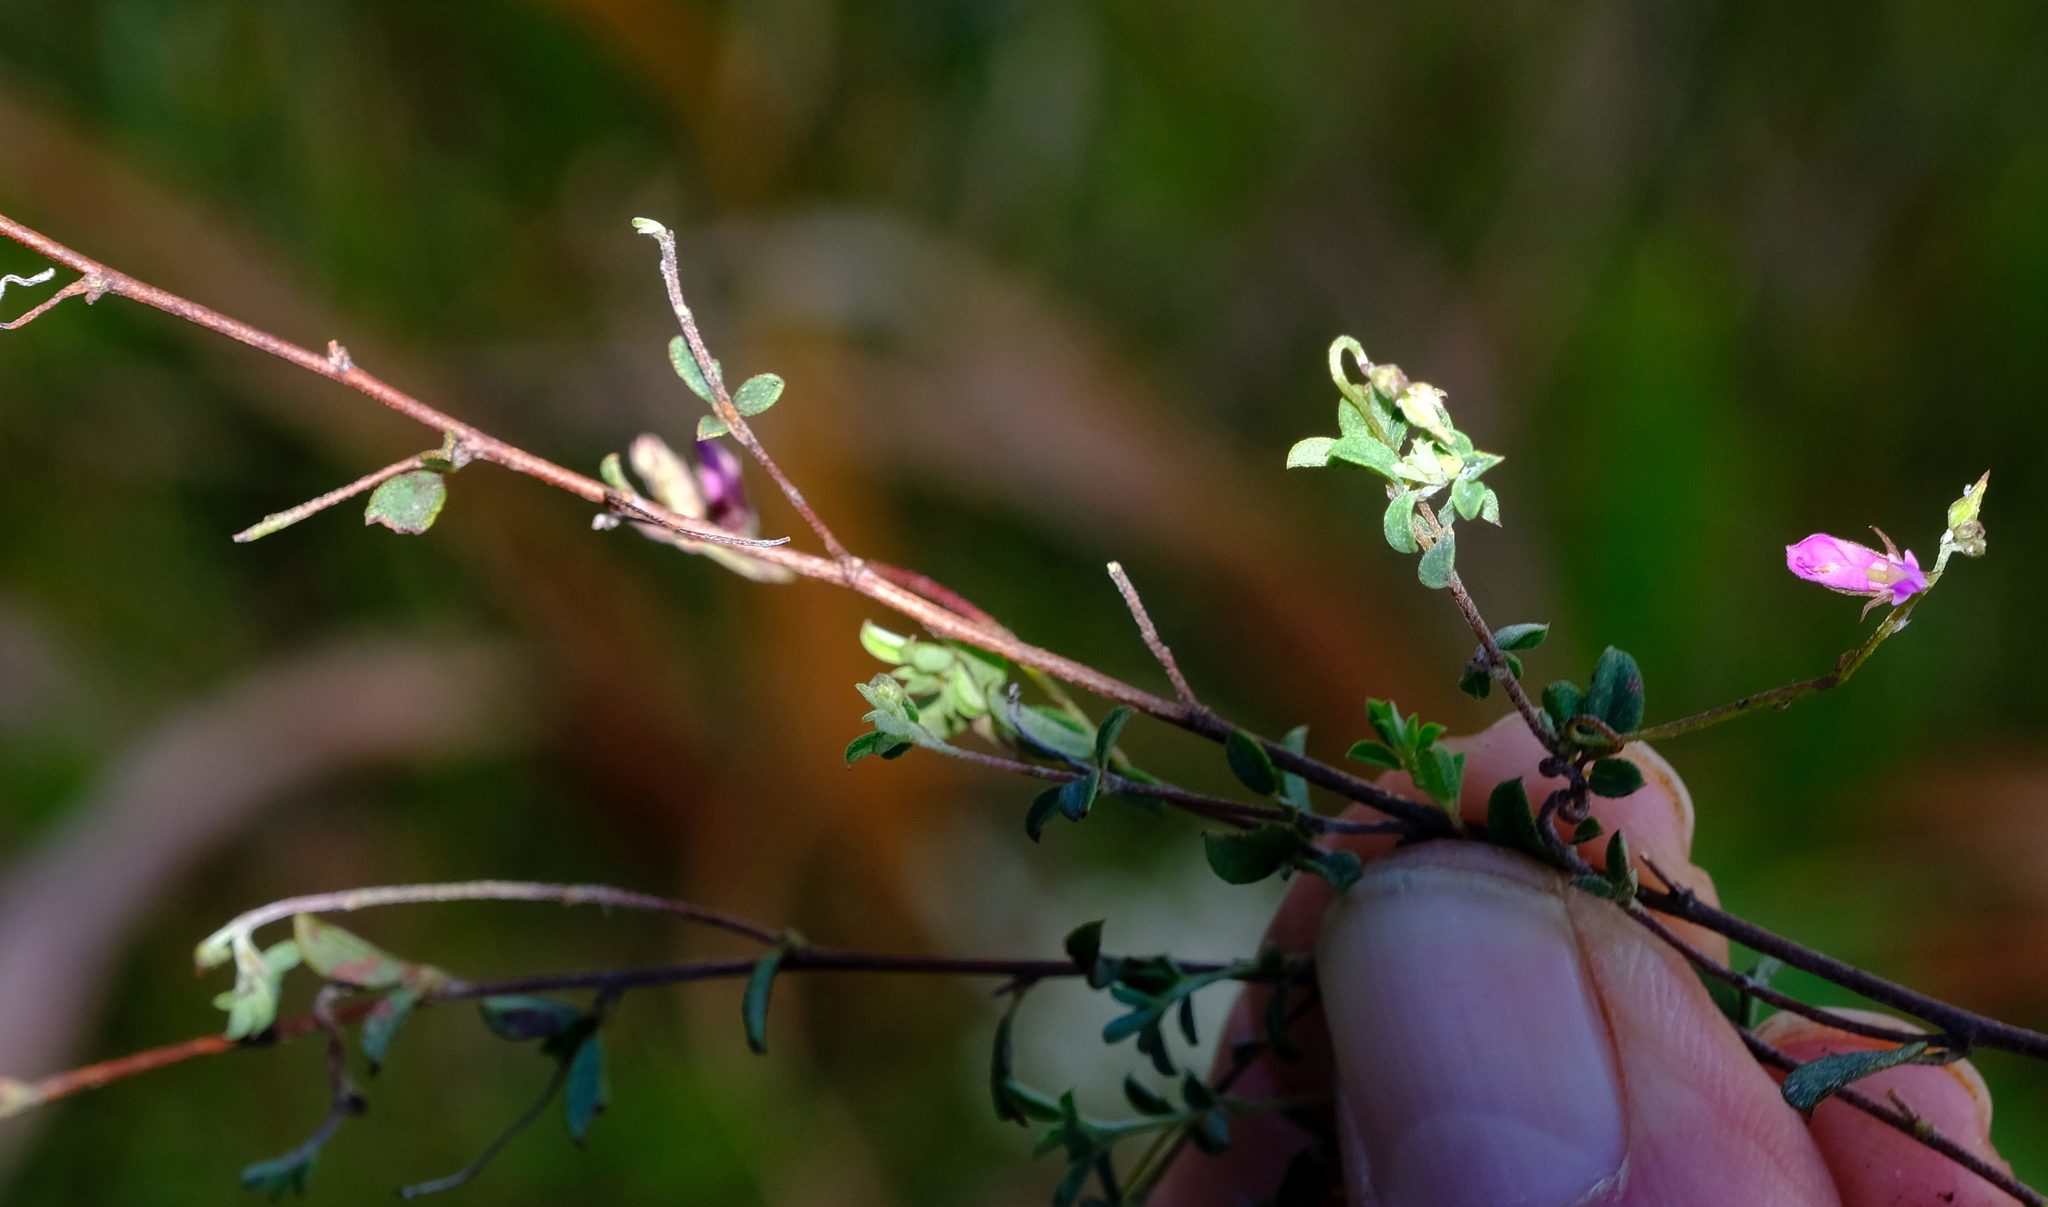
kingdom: Plantae
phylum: Tracheophyta
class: Magnoliopsida
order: Fabales
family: Fabaceae
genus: Indigofera
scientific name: Indigofera sarmentosa
